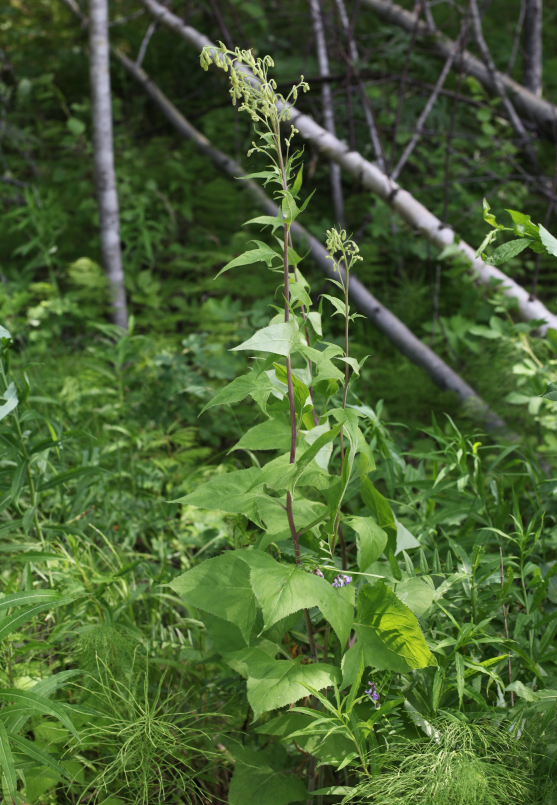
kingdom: Plantae
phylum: Tracheophyta
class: Magnoliopsida
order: Asterales
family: Asteraceae
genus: Parasenecio
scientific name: Parasenecio hastatus
